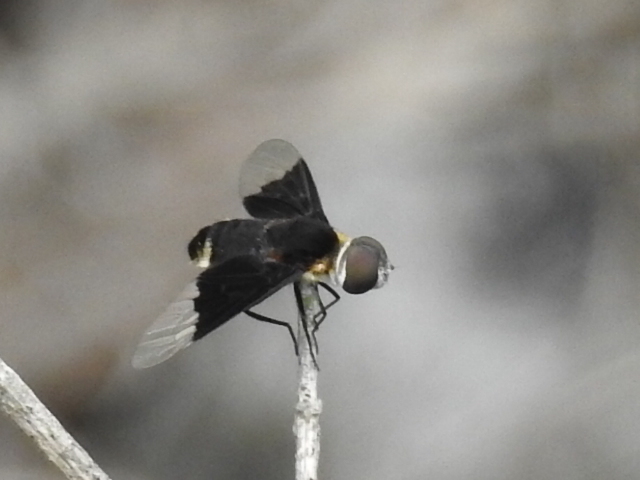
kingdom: Animalia
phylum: Arthropoda
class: Insecta
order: Diptera
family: Bombyliidae
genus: Ins
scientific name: Ins celeris
